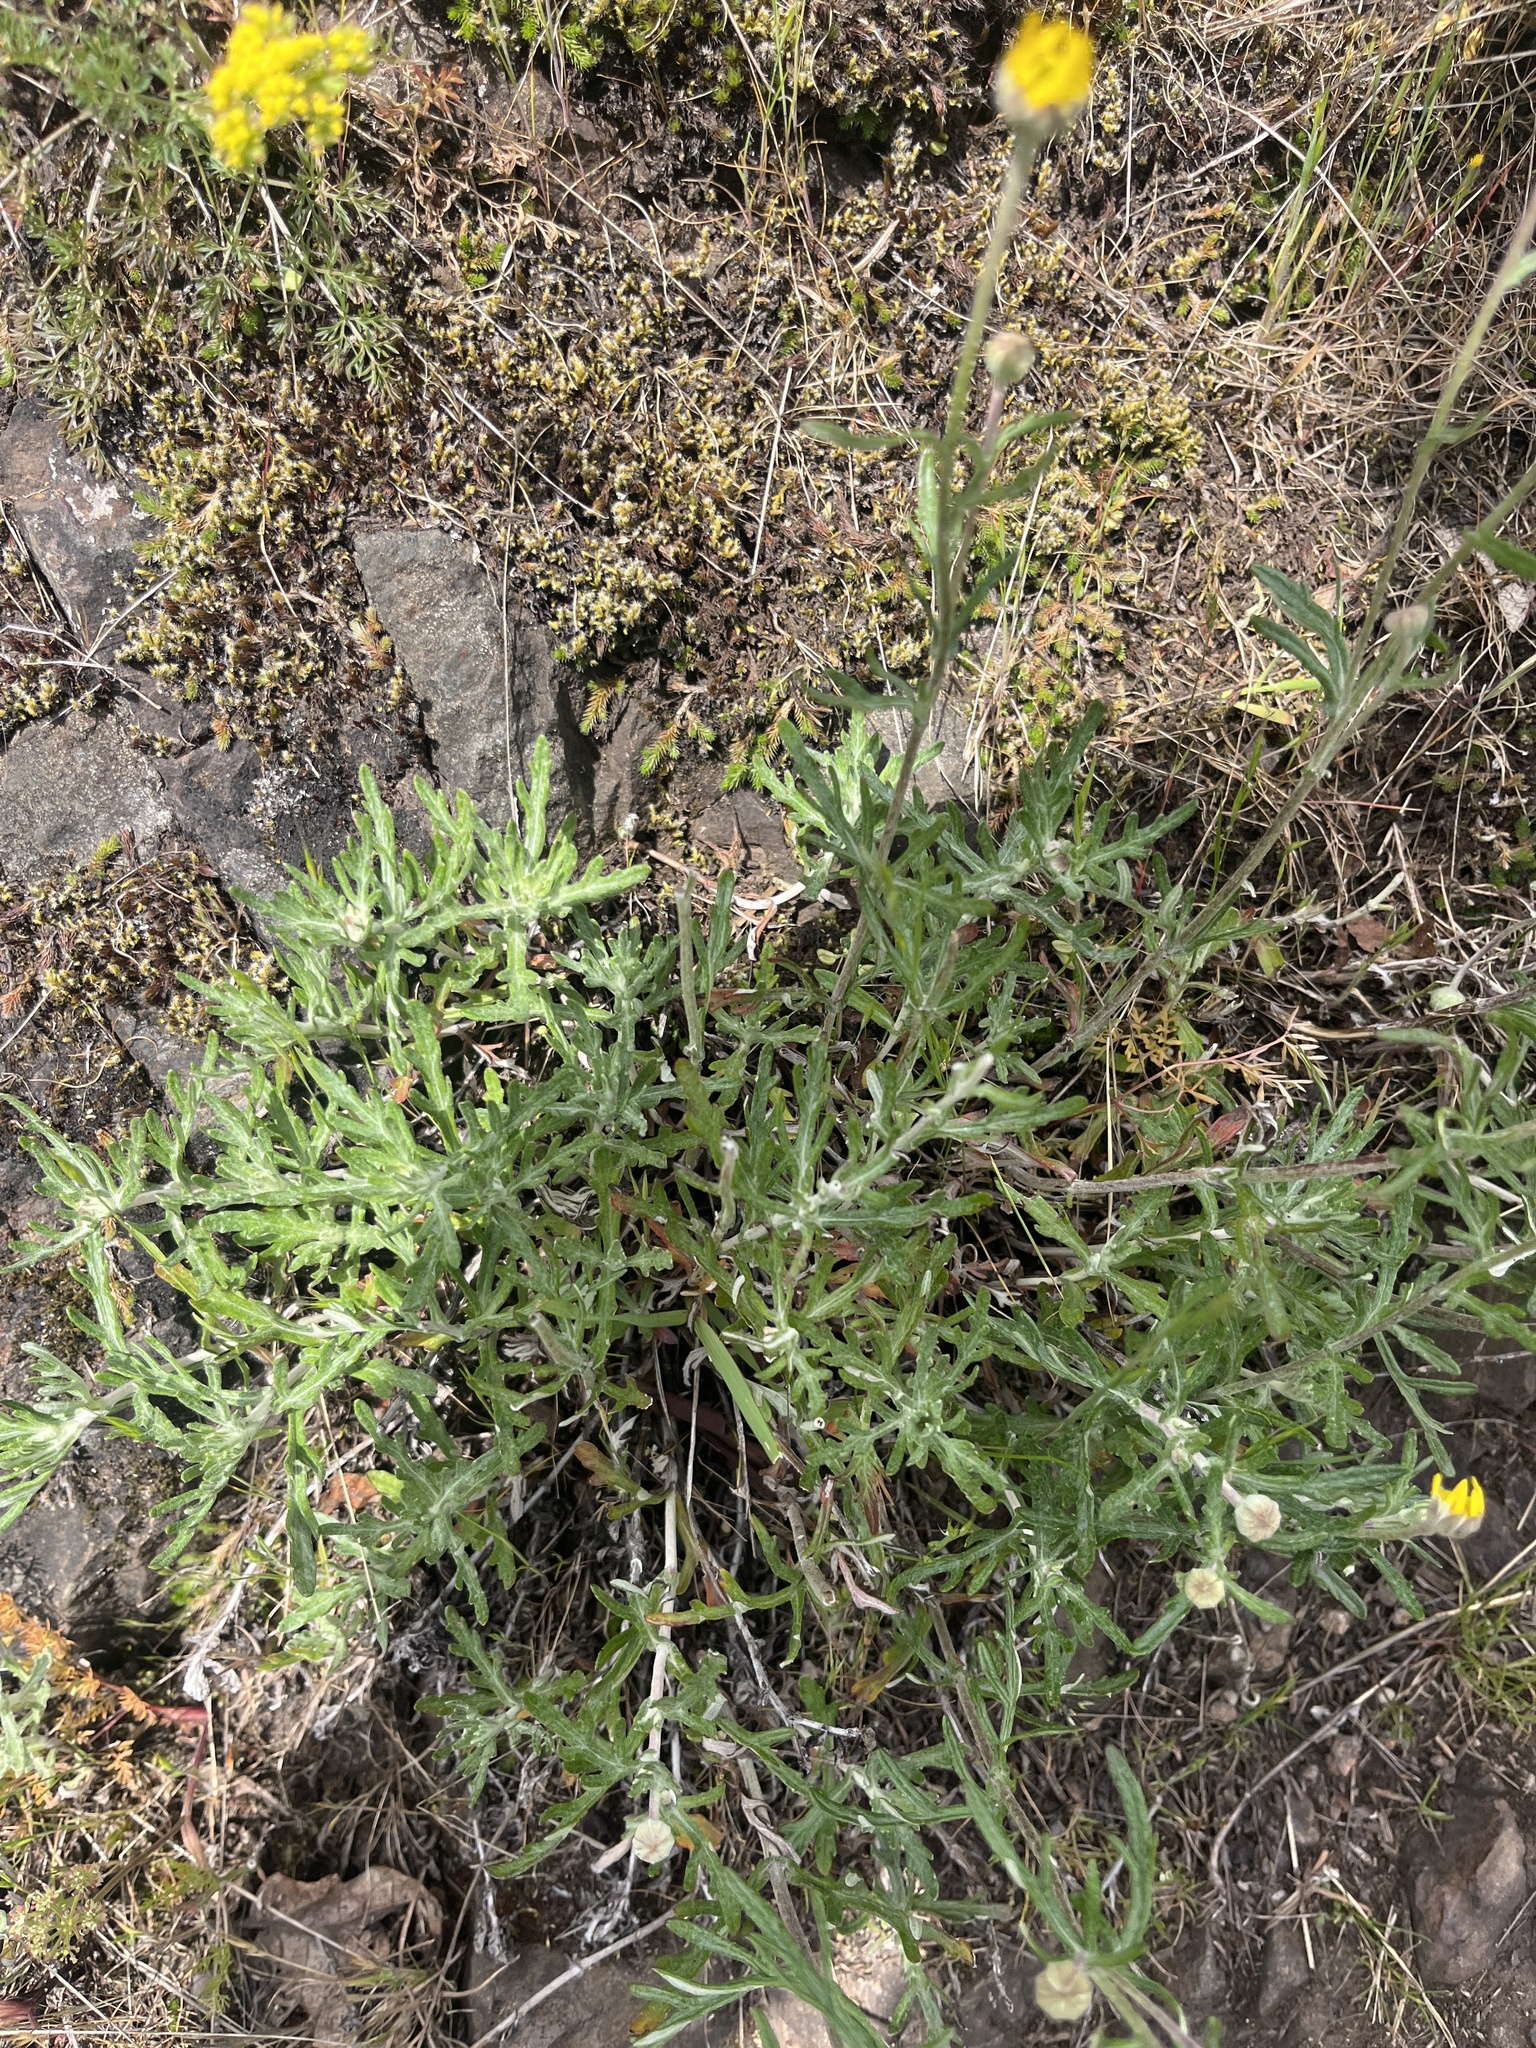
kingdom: Plantae
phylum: Tracheophyta
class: Magnoliopsida
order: Asterales
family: Asteraceae
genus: Eriophyllum
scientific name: Eriophyllum lanatum
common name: Common woolly-sunflower
